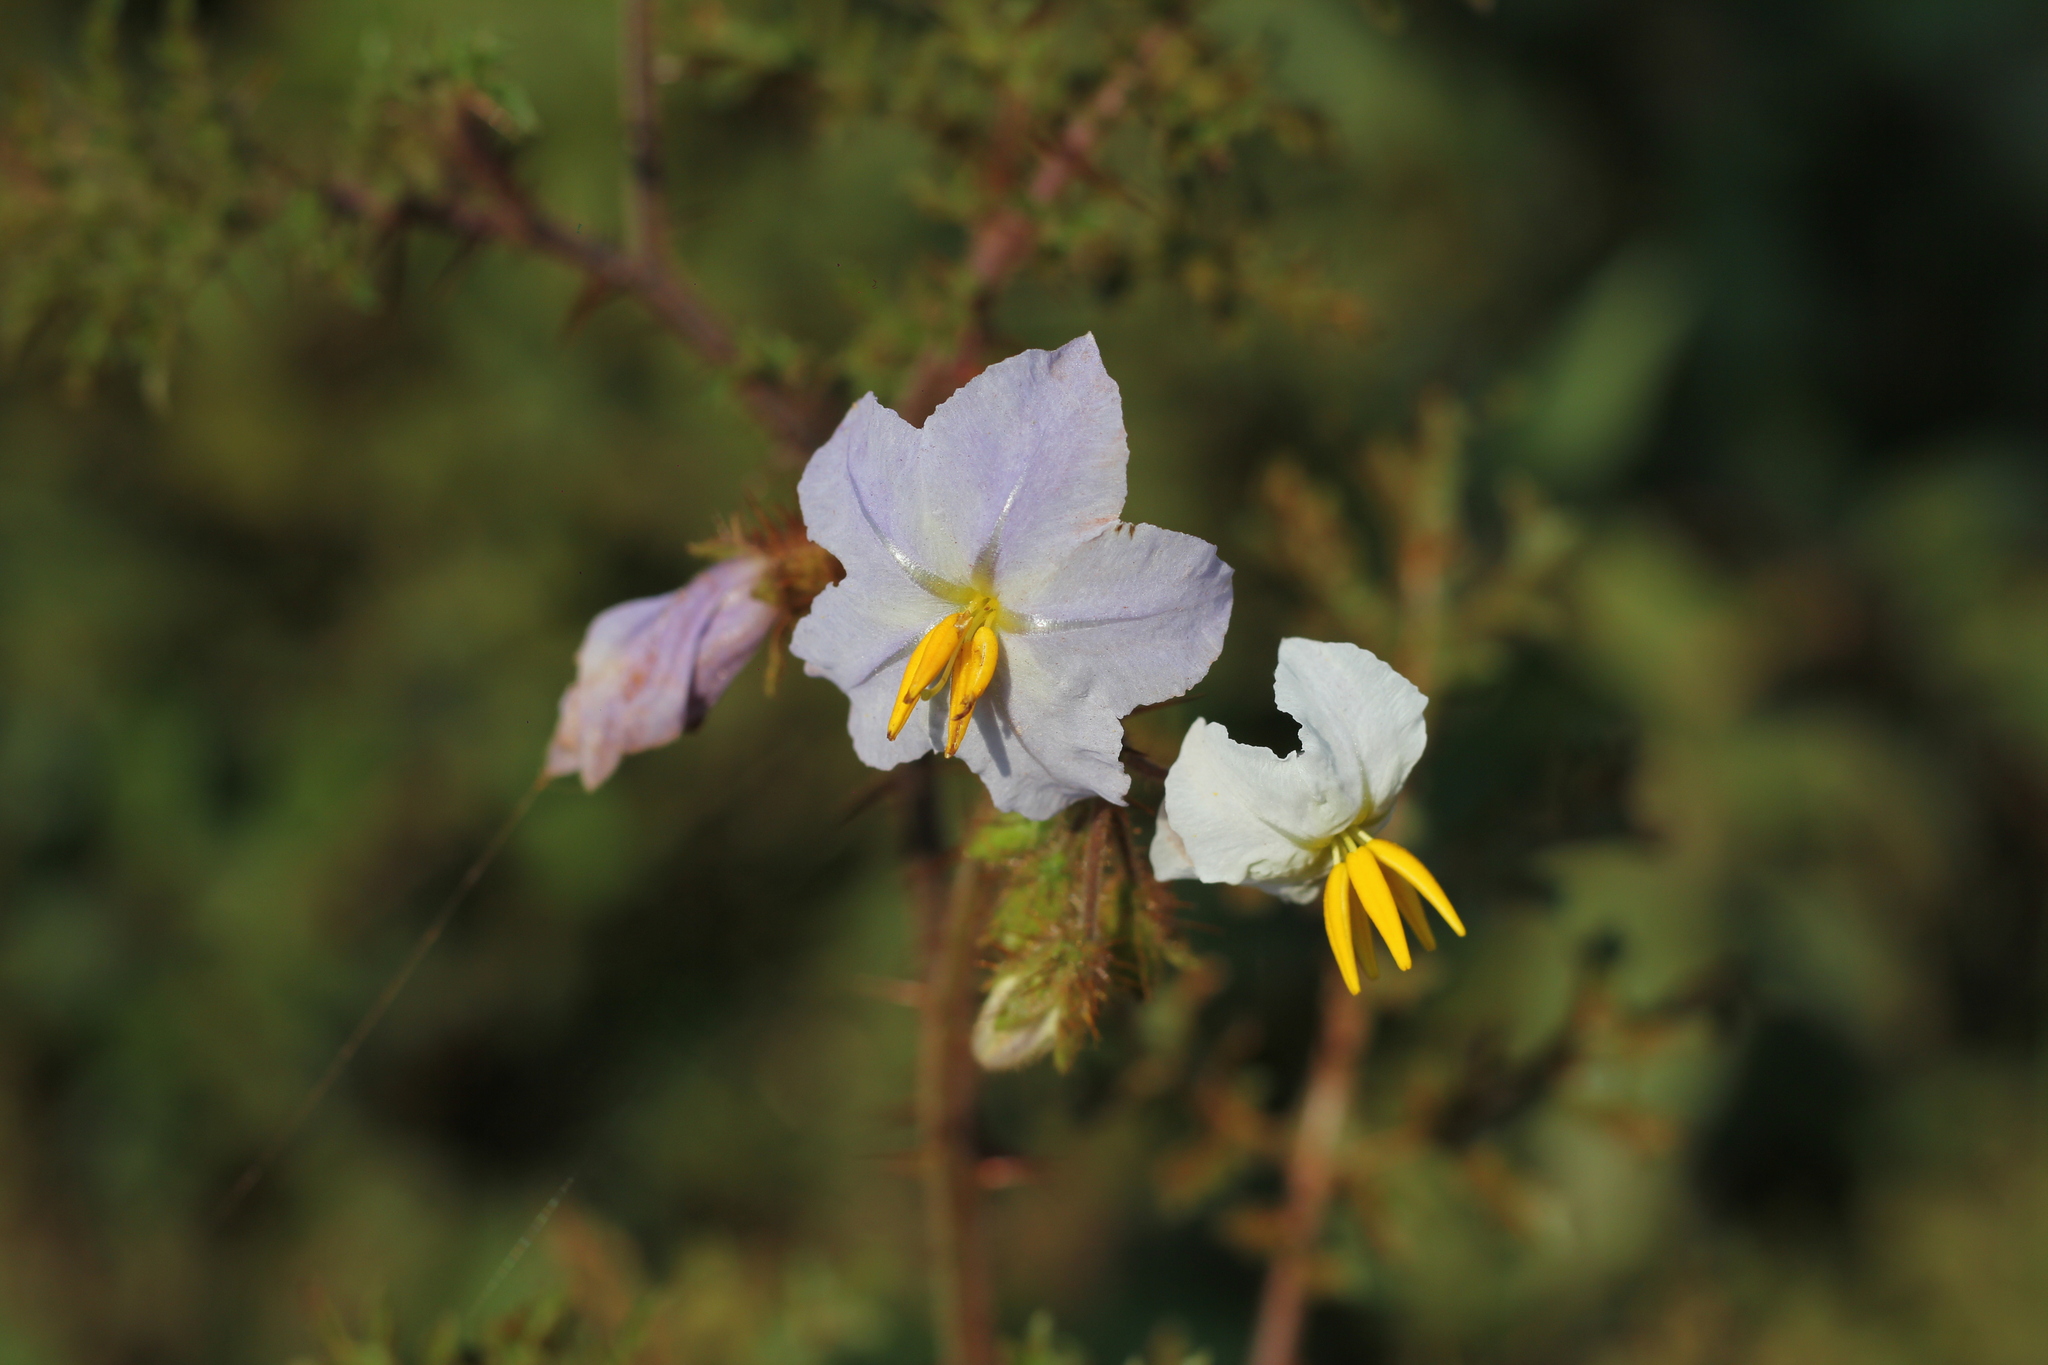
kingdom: Plantae
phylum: Tracheophyta
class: Magnoliopsida
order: Solanales
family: Solanaceae
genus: Solanum
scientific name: Solanum sisymbriifolium
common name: Red buffalo-bur
